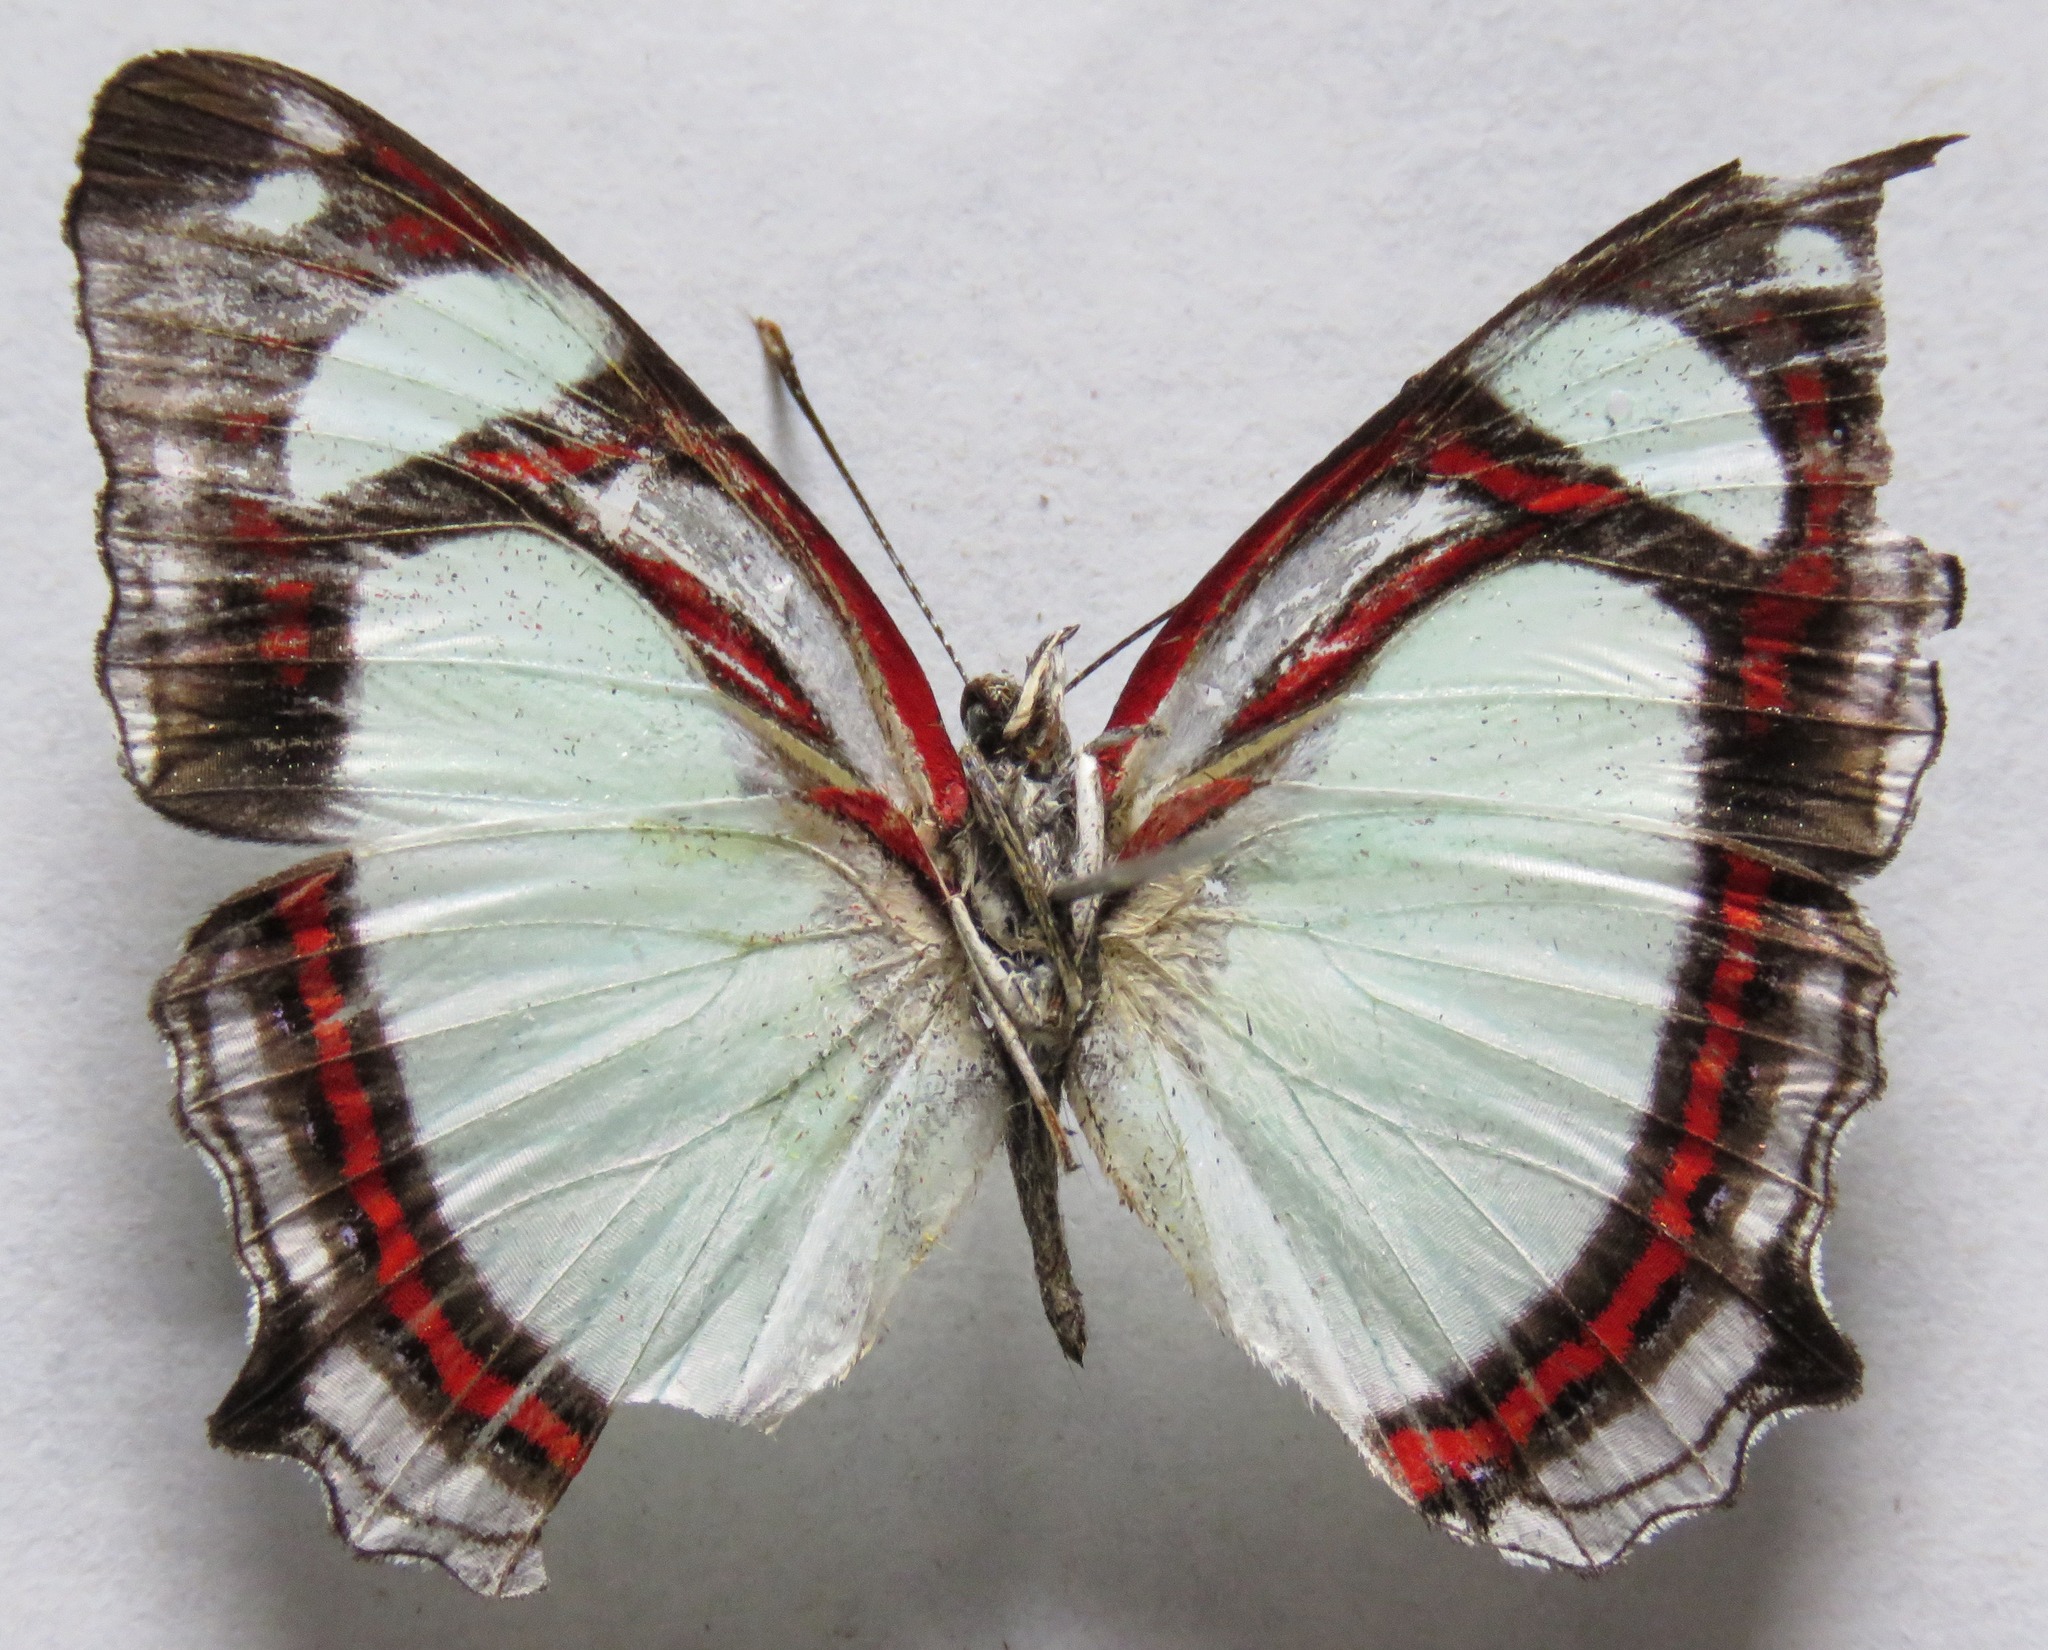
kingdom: Animalia
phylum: Arthropoda
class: Insecta
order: Lepidoptera
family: Nymphalidae
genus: Pyrrhogyra
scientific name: Pyrrhogyra otolais
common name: Double-banded banner
